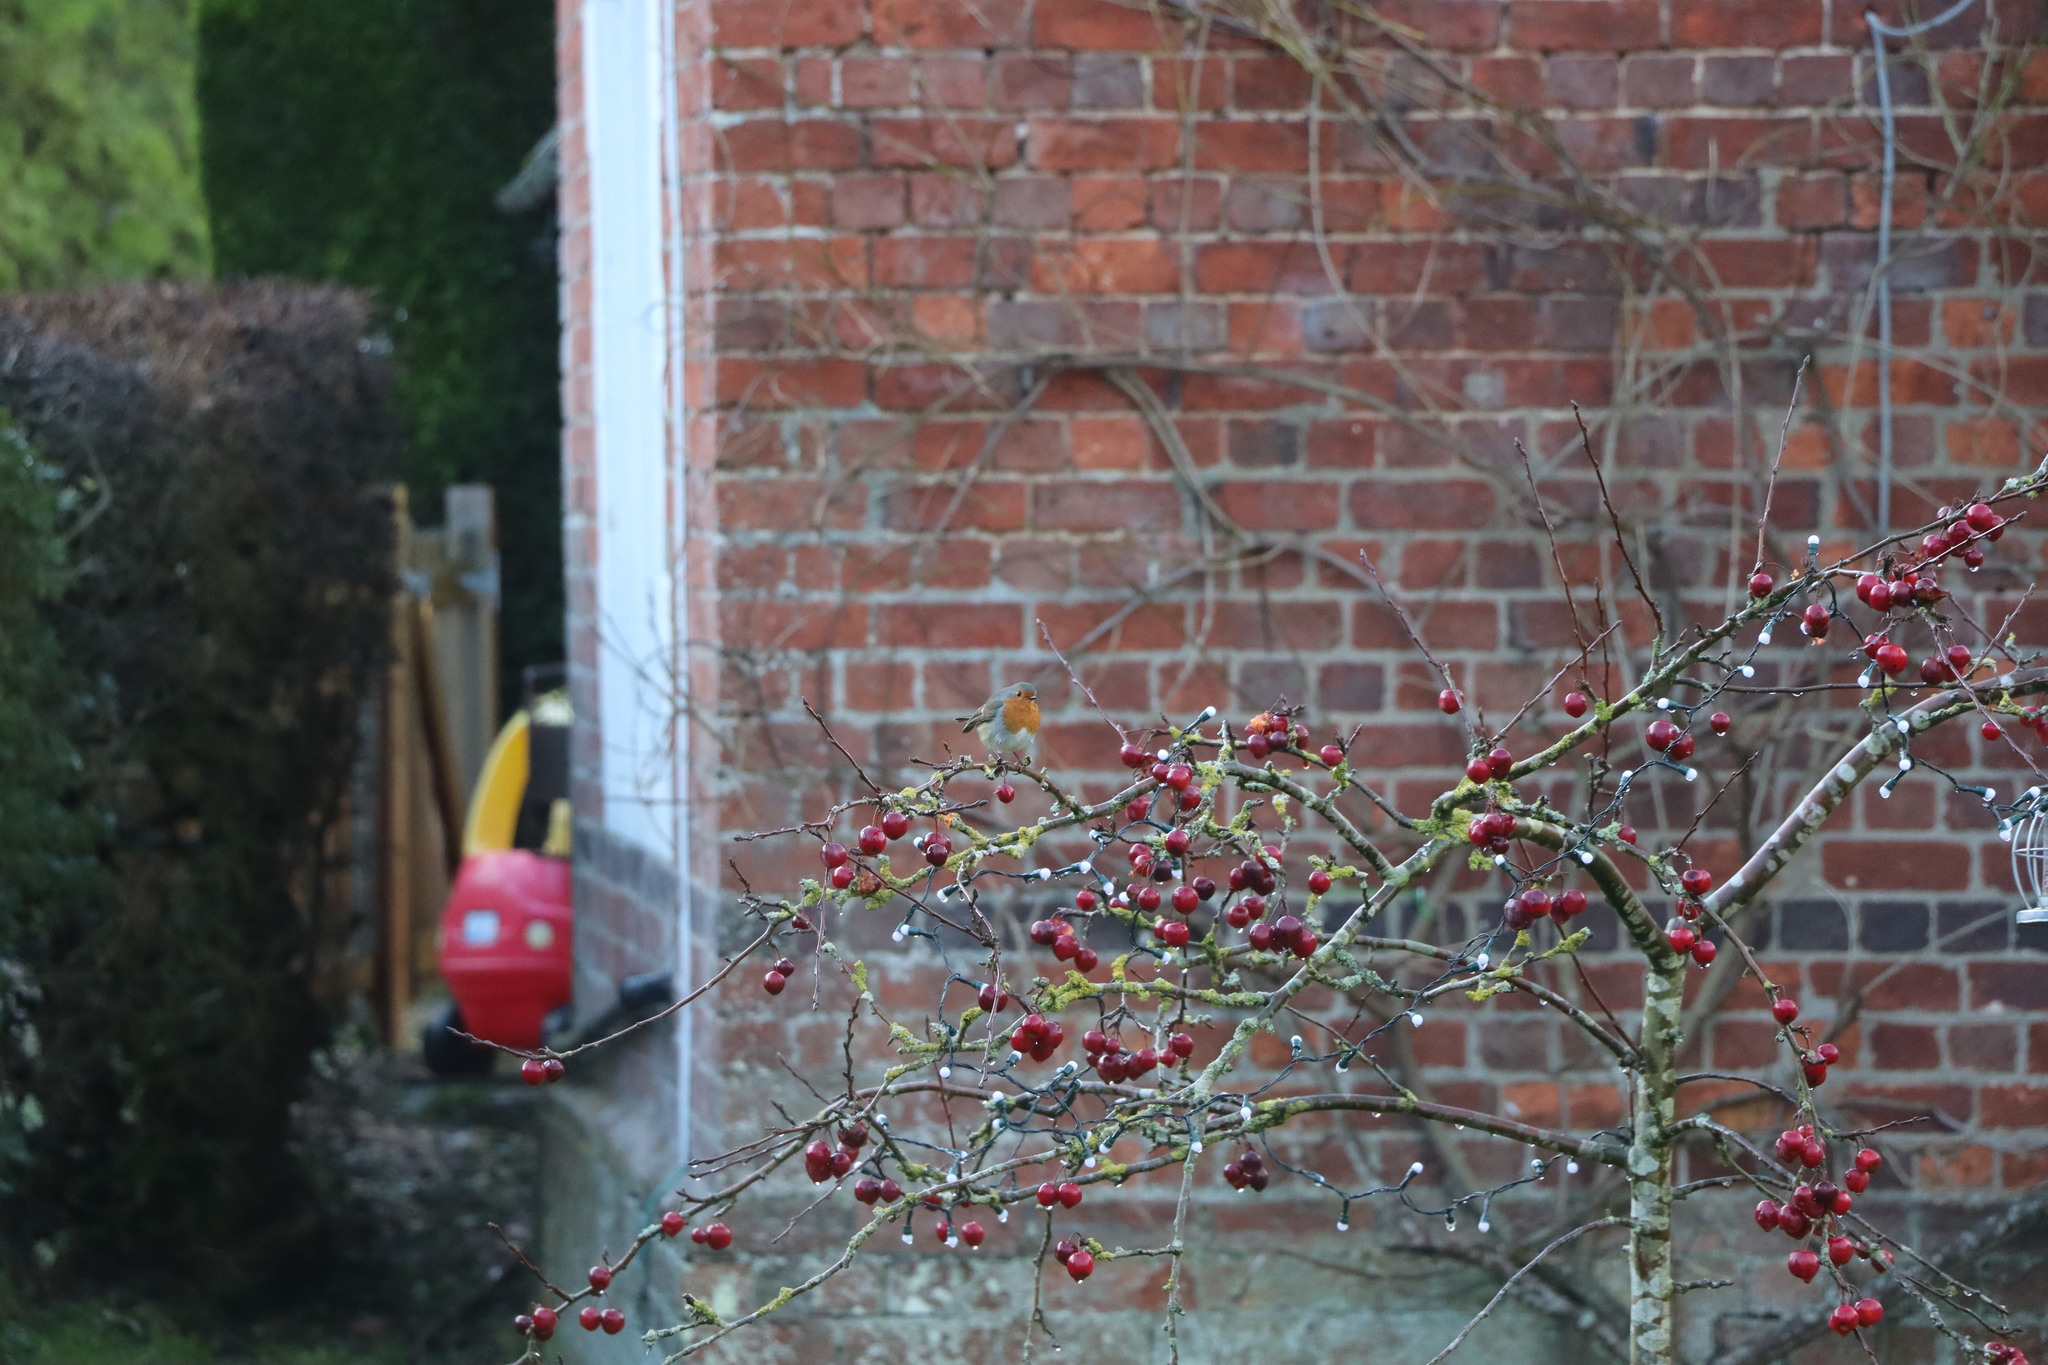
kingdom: Animalia
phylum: Chordata
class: Aves
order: Passeriformes
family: Muscicapidae
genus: Erithacus
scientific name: Erithacus rubecula
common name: European robin
